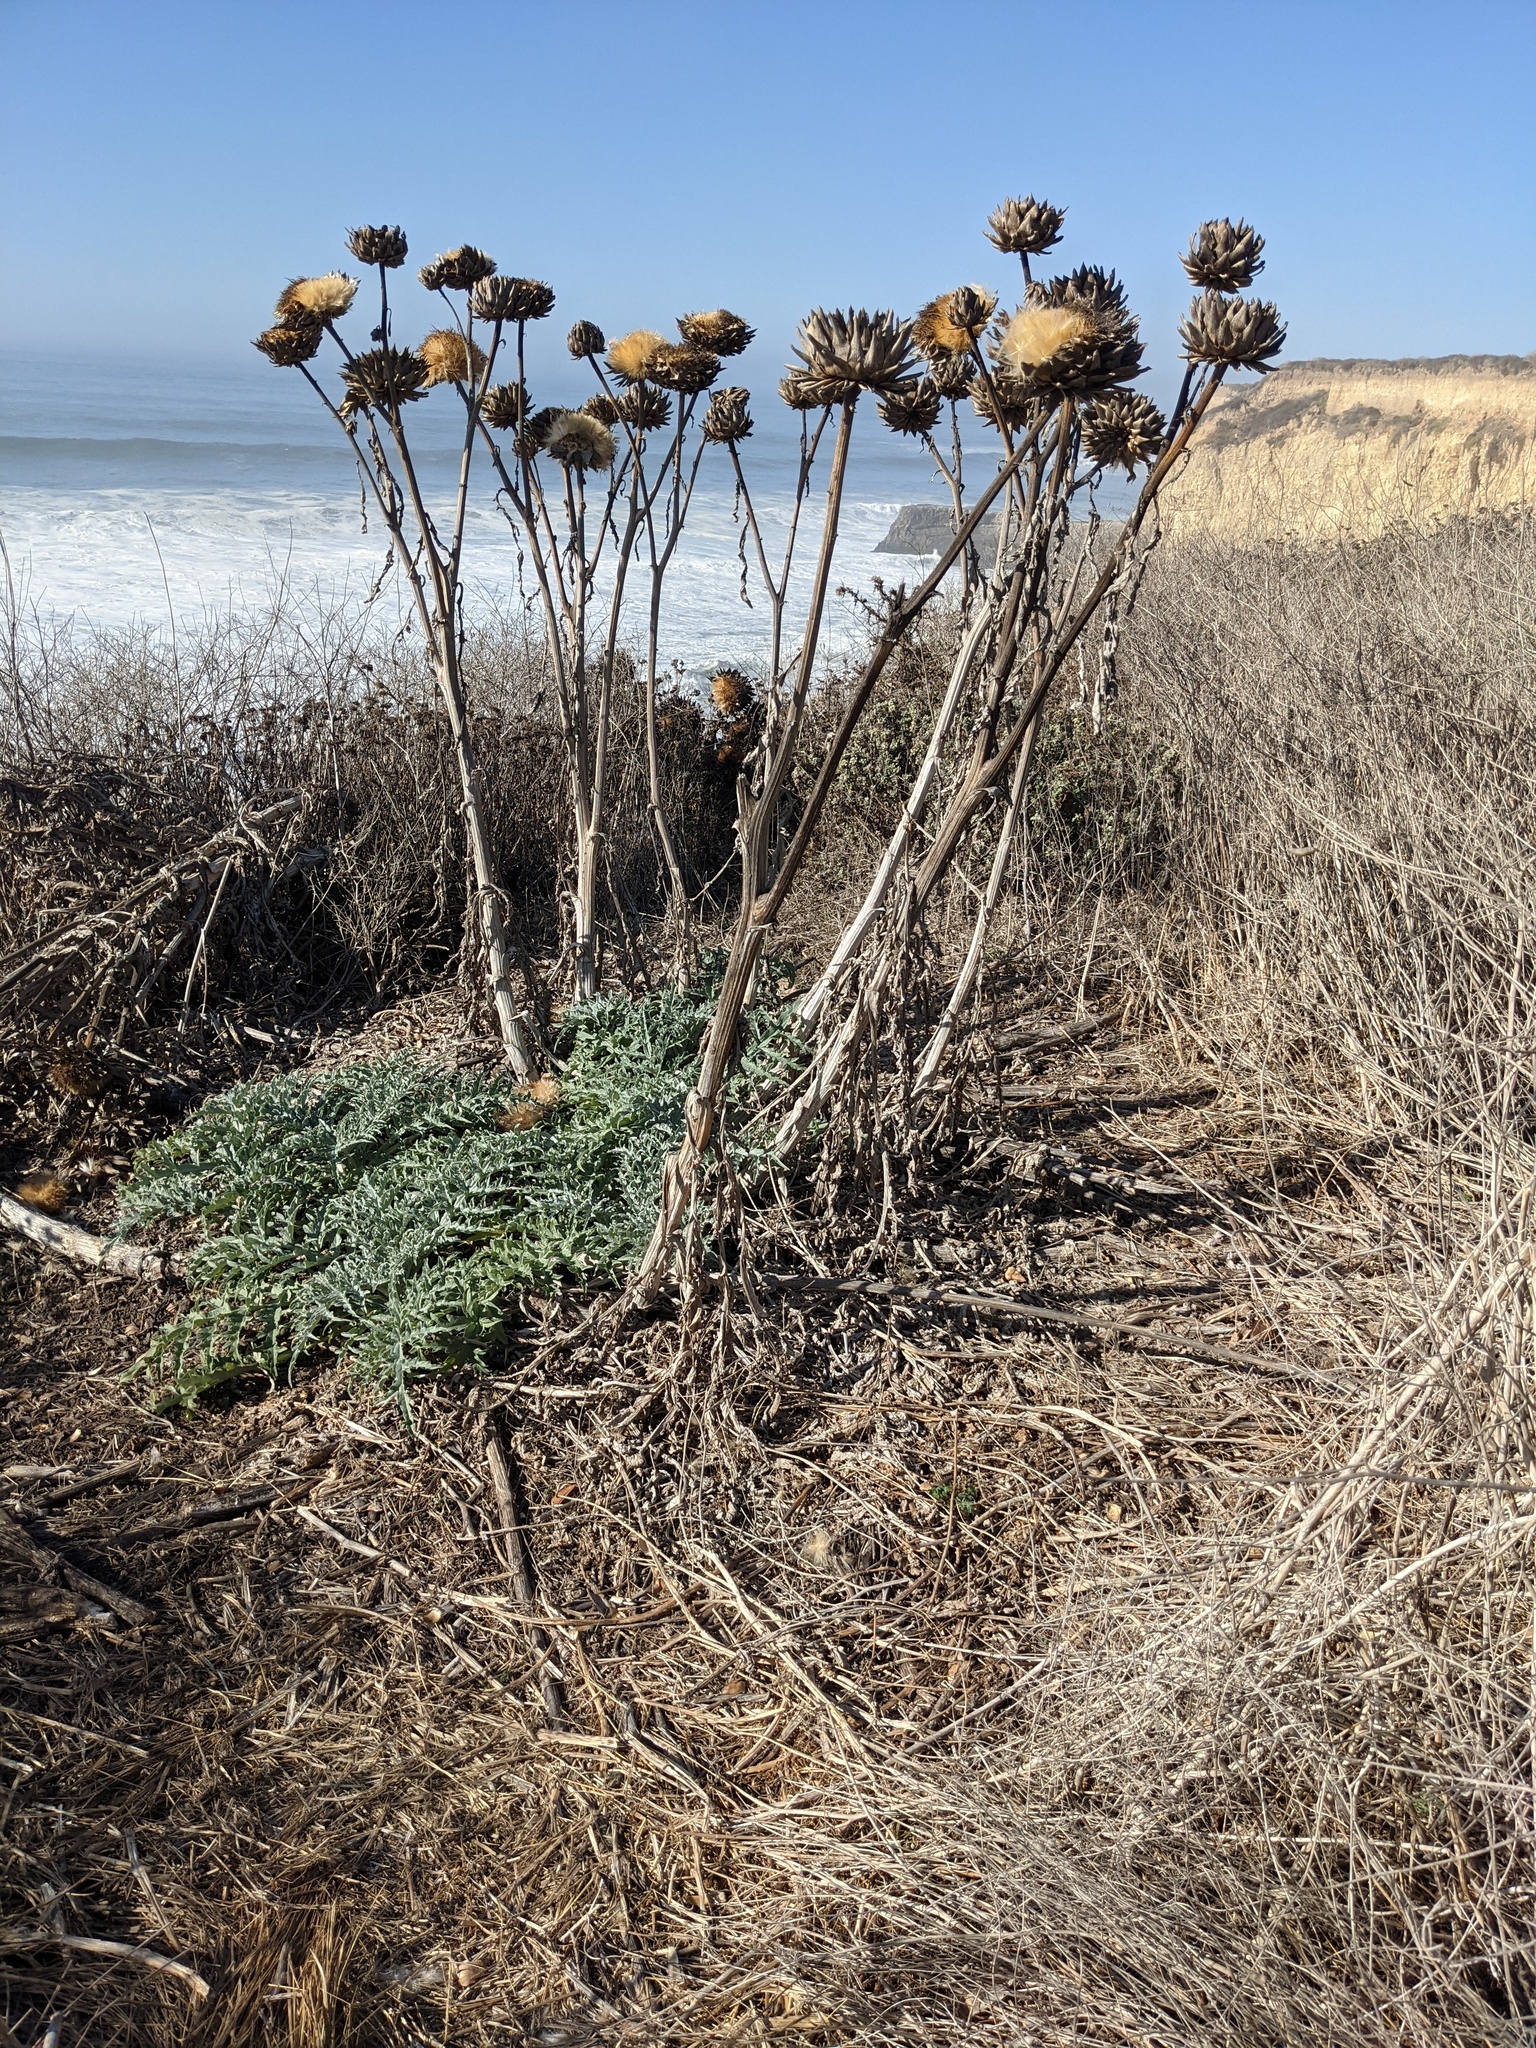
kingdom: Plantae
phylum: Tracheophyta
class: Magnoliopsida
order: Asterales
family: Asteraceae
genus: Cynara
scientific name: Cynara cardunculus
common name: Globe artichoke
